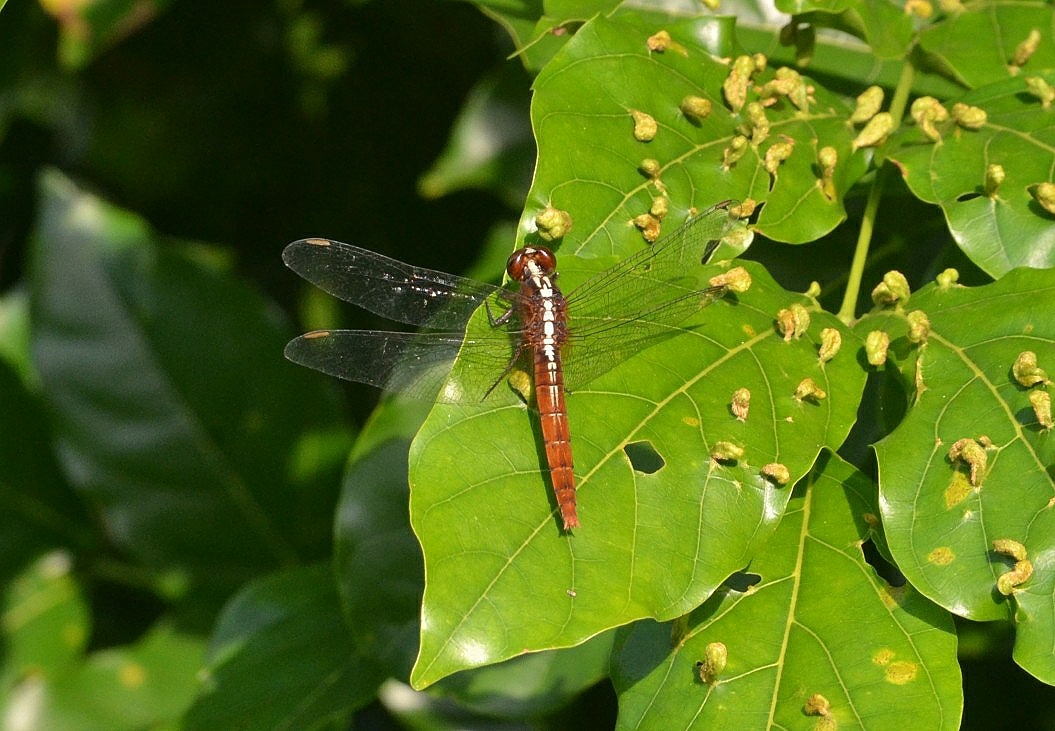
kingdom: Animalia
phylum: Arthropoda
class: Insecta
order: Odonata
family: Libellulidae
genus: Rhodothemis
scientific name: Rhodothemis rufa
